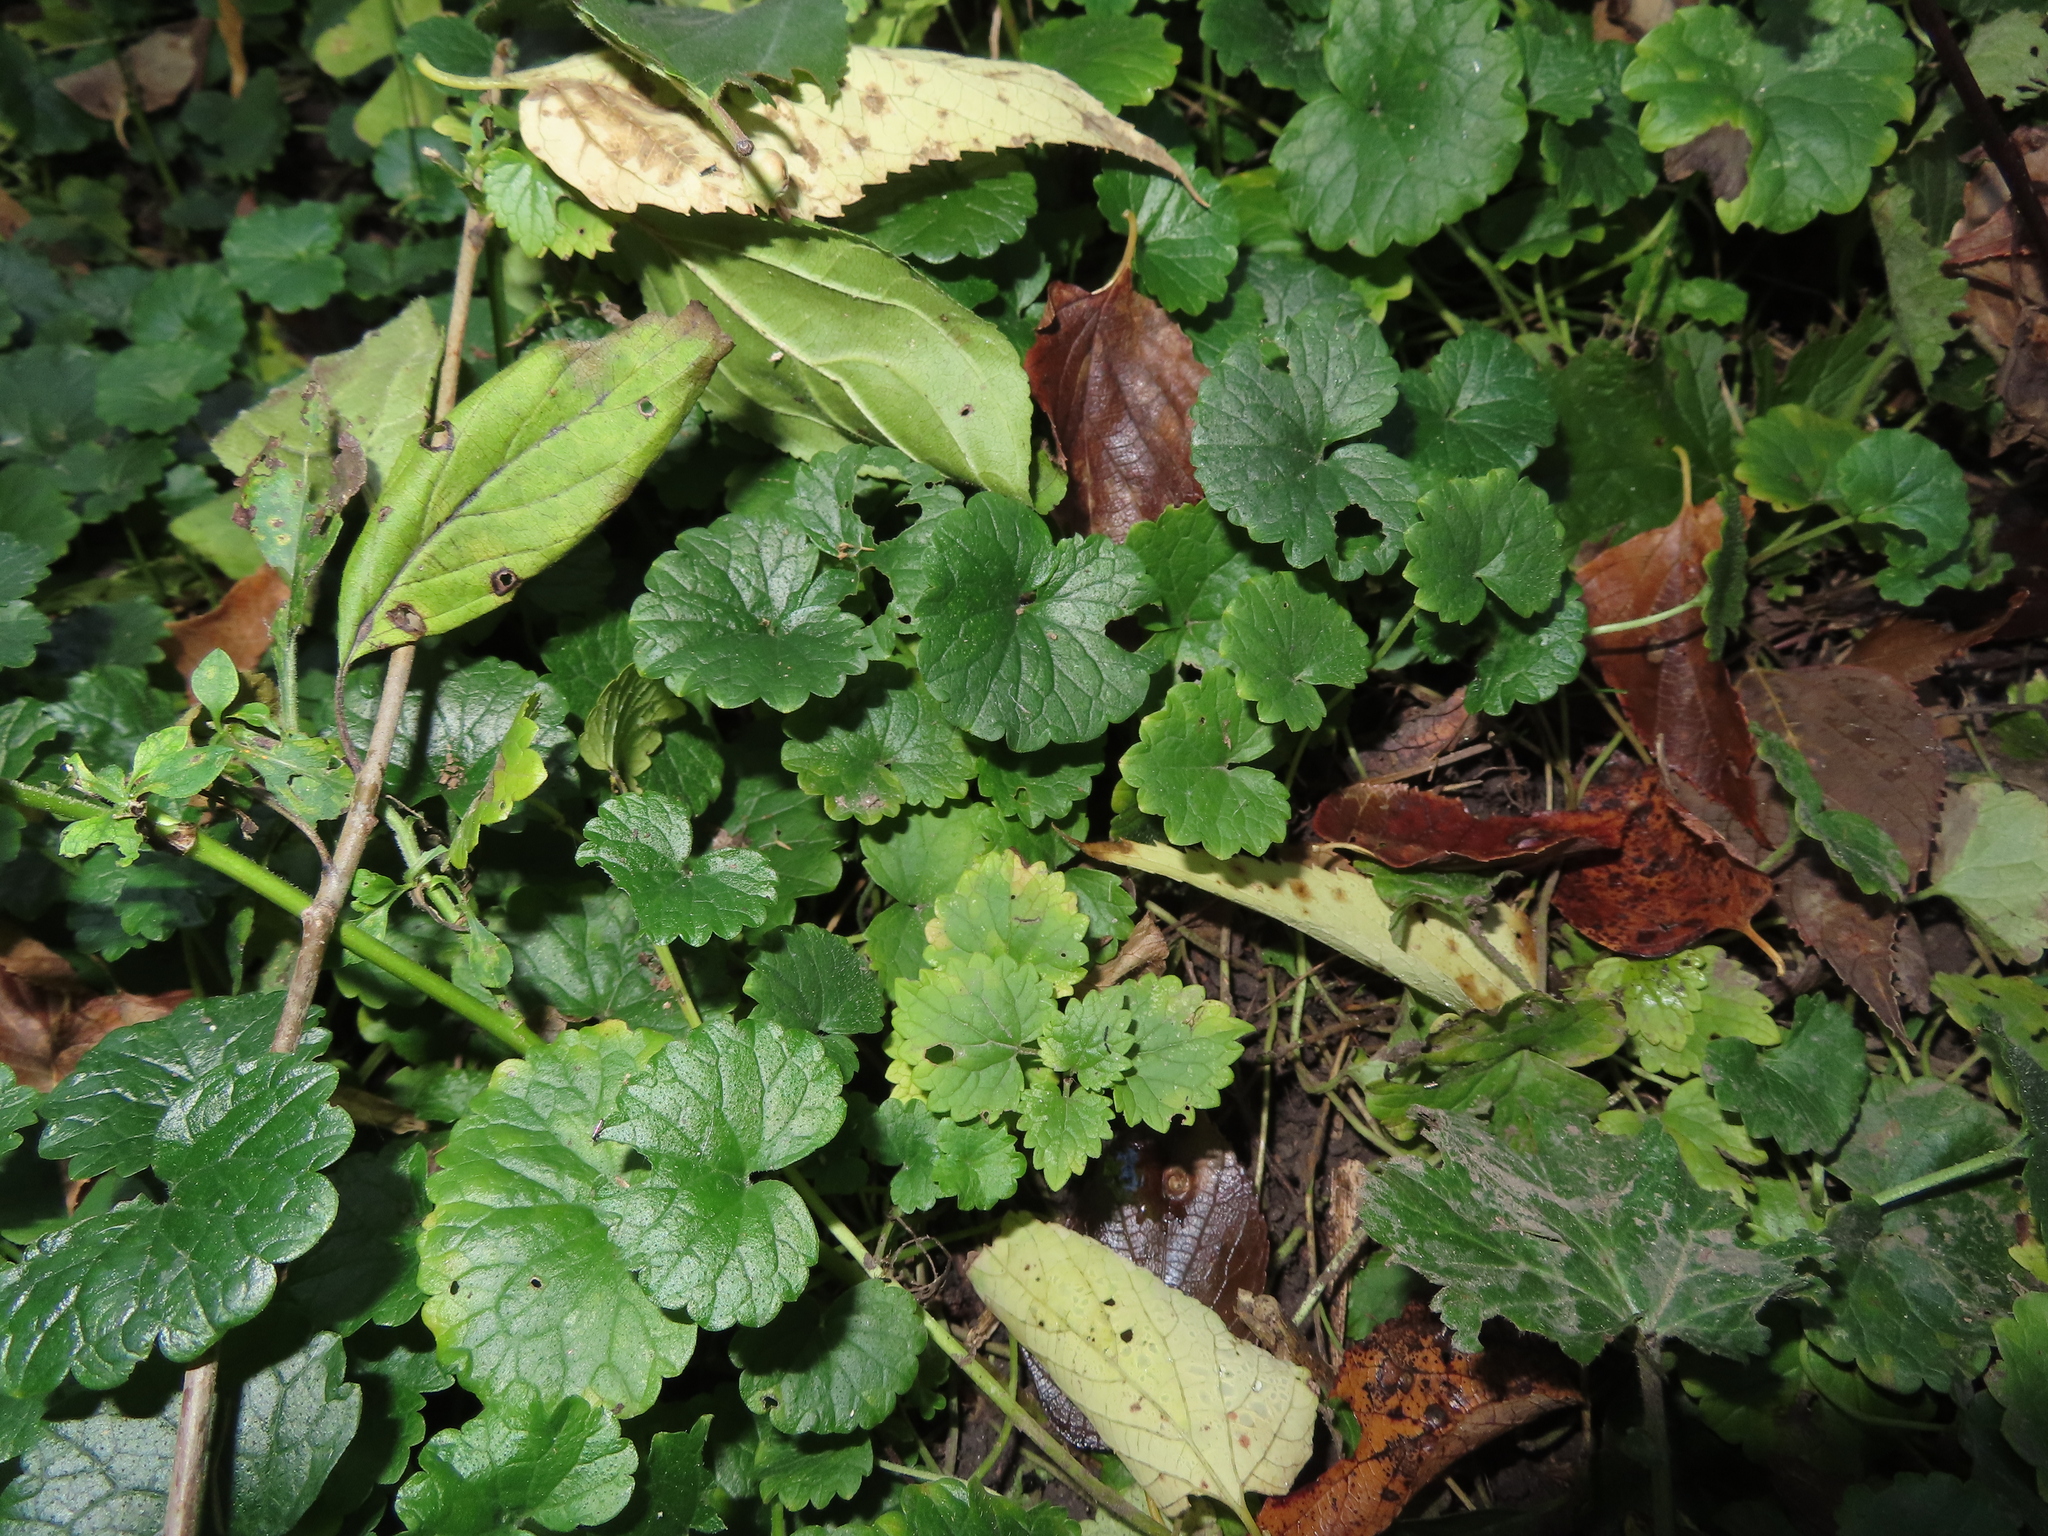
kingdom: Plantae
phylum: Tracheophyta
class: Magnoliopsida
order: Lamiales
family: Lamiaceae
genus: Glechoma
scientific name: Glechoma hederacea
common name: Ground ivy
